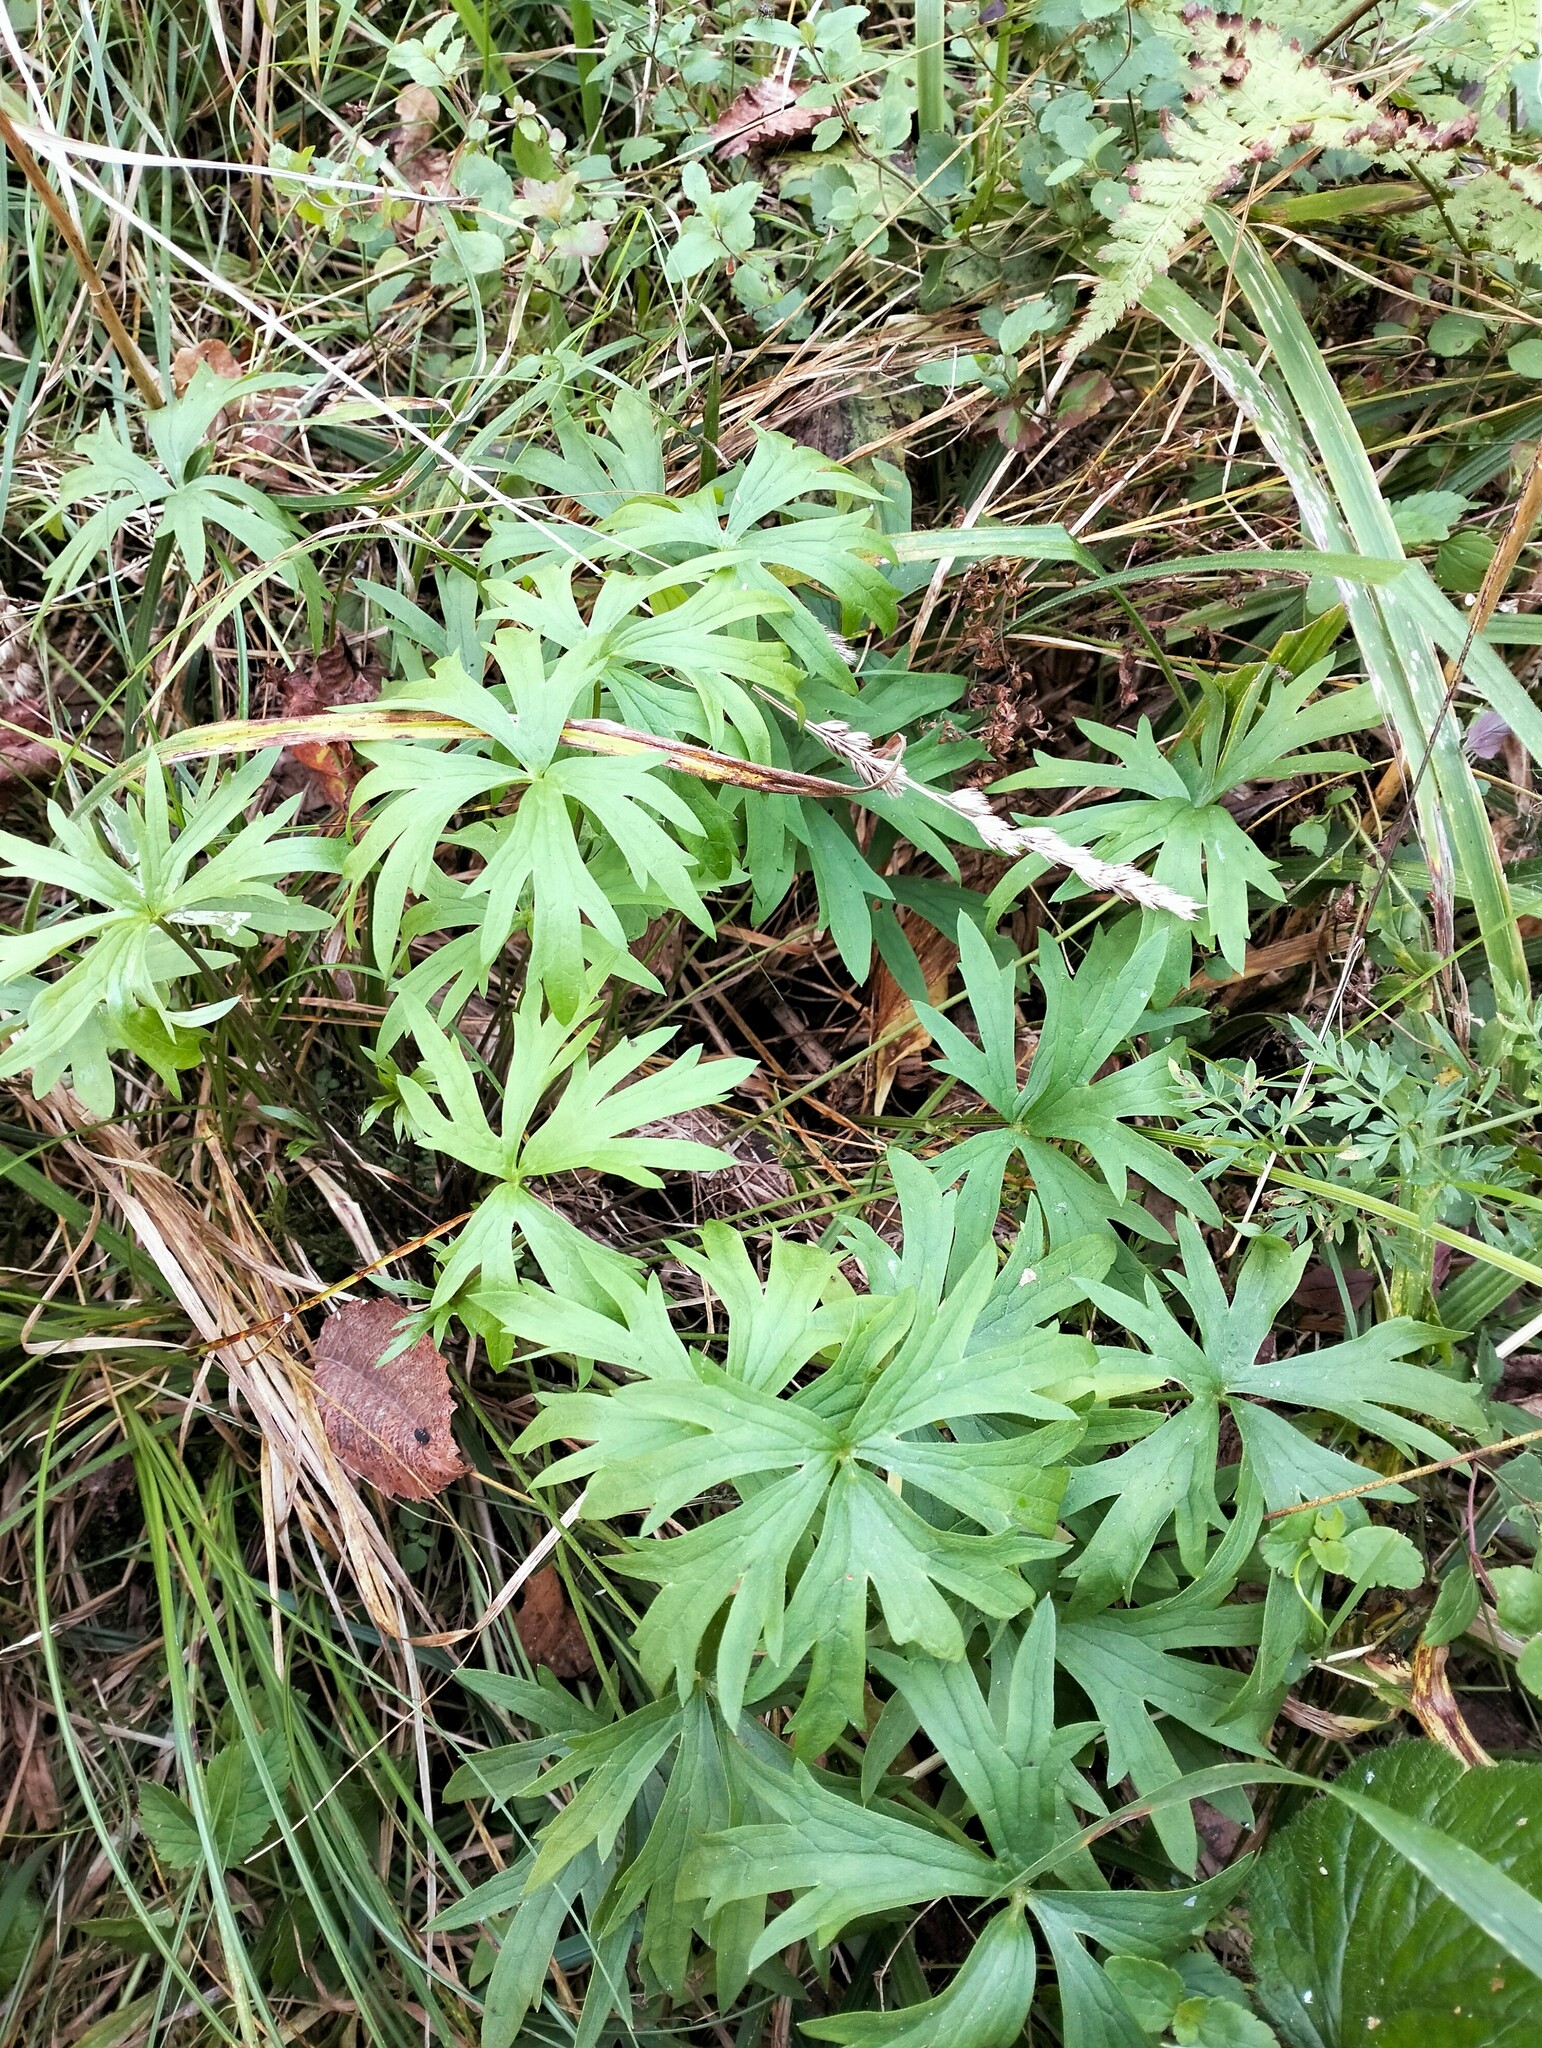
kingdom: Plantae
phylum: Tracheophyta
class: Magnoliopsida
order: Ranunculales
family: Ranunculaceae
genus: Pulsatilla
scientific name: Pulsatilla patens
